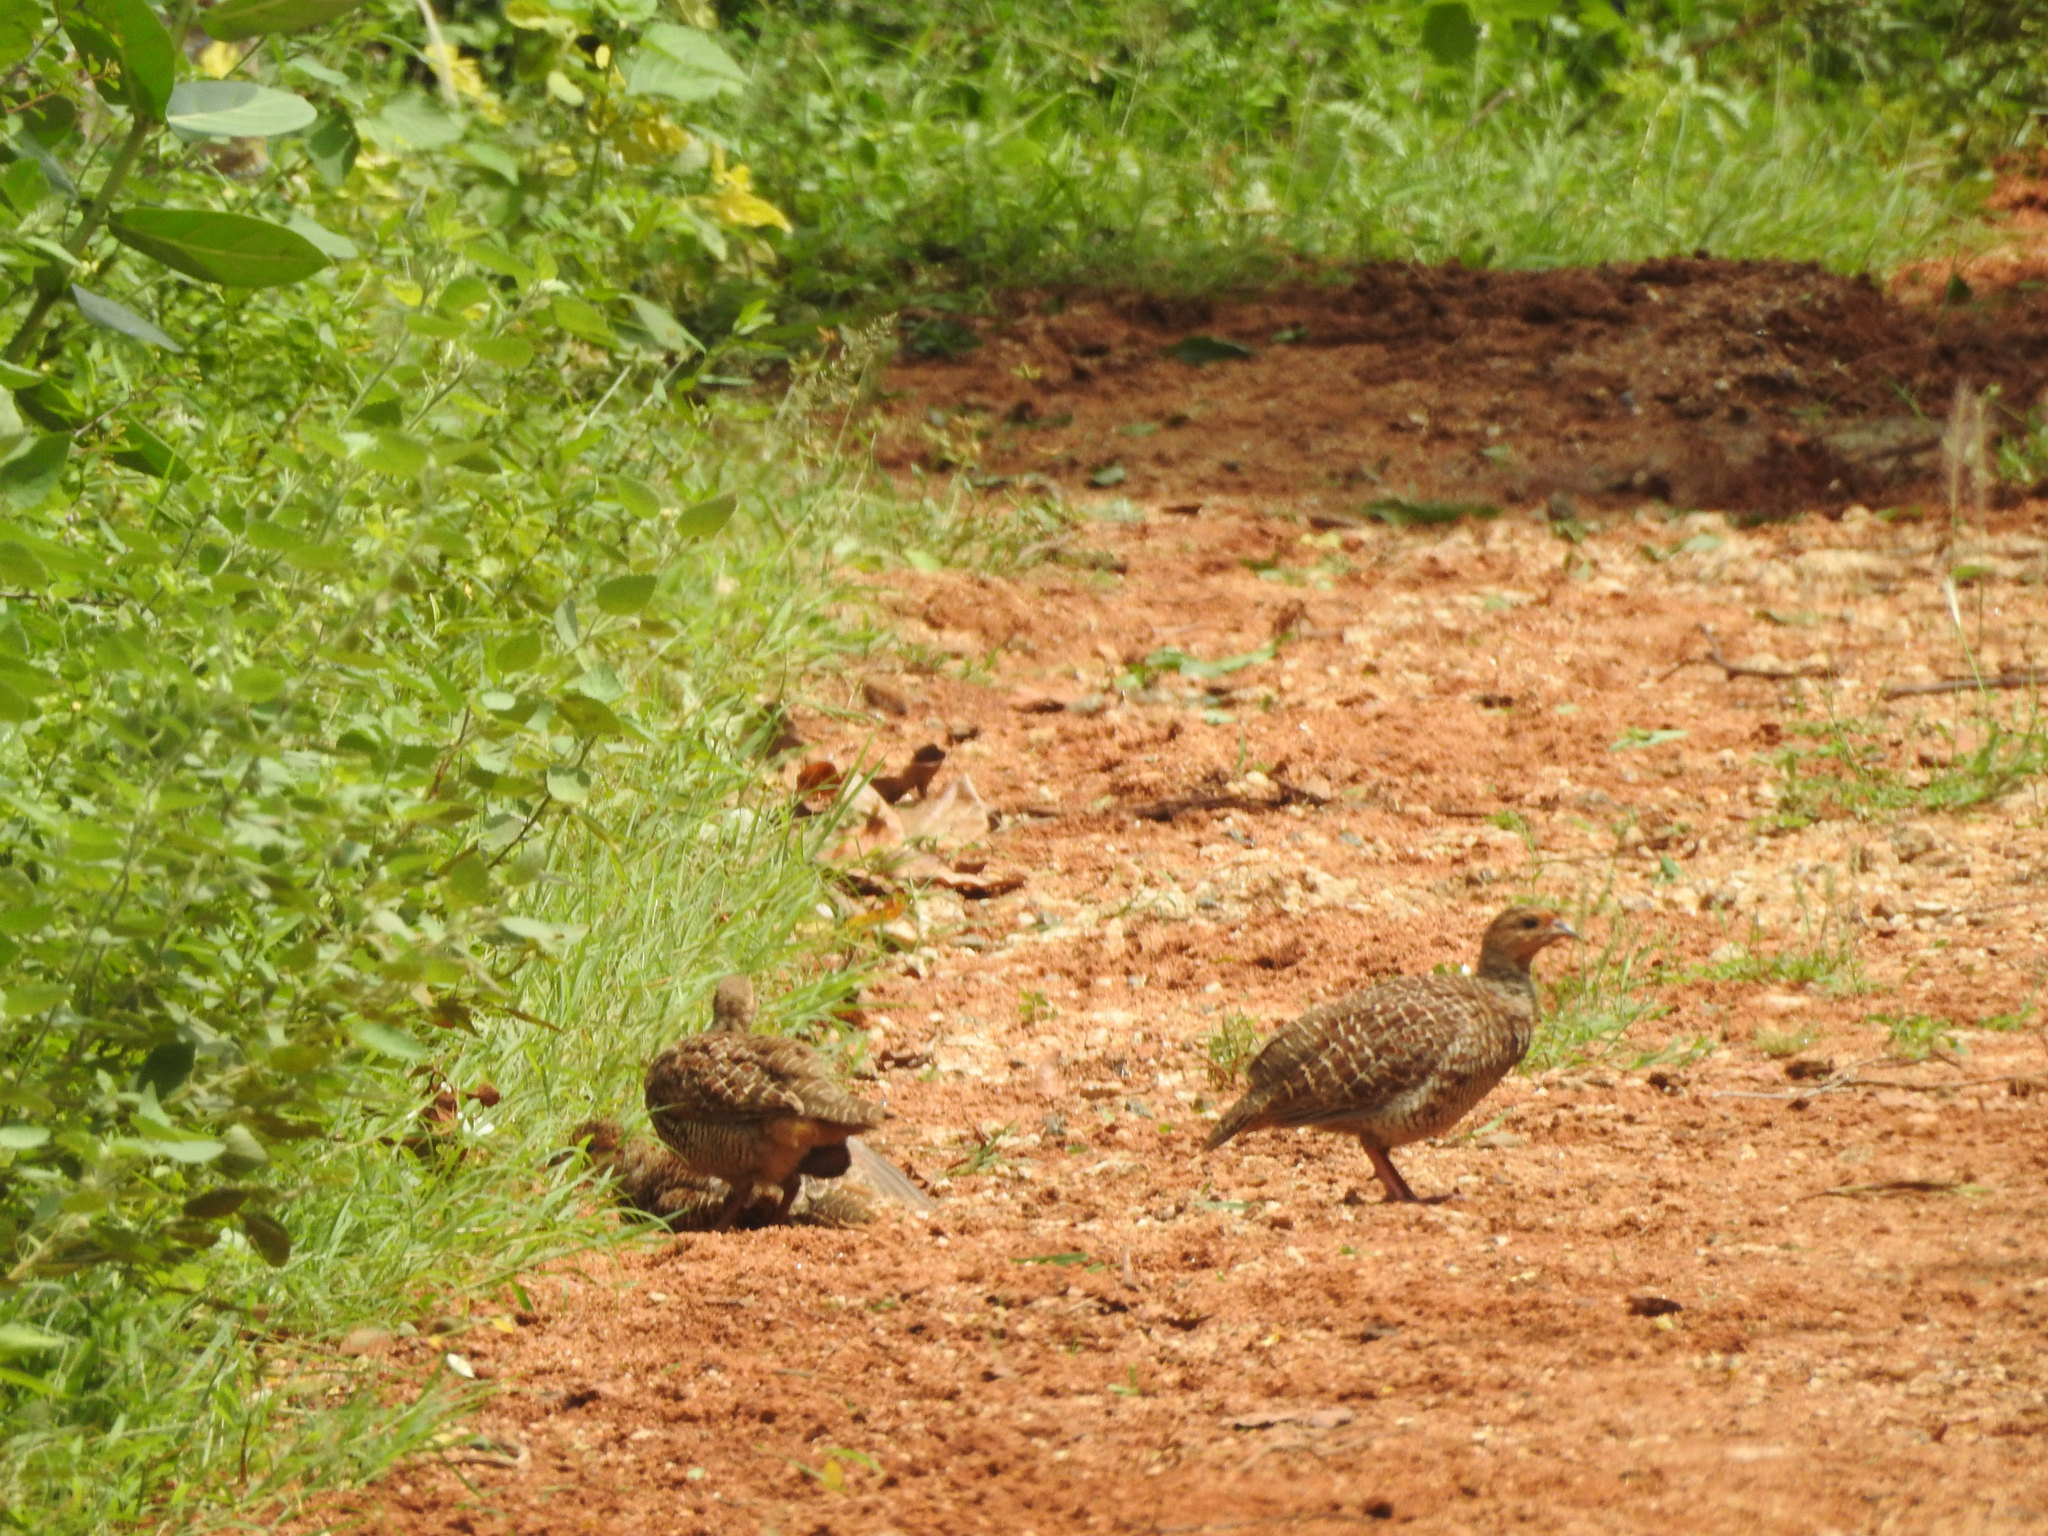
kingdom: Animalia
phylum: Chordata
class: Aves
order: Galliformes
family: Phasianidae
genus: Ortygornis
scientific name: Ortygornis pondicerianus
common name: Grey francolin
